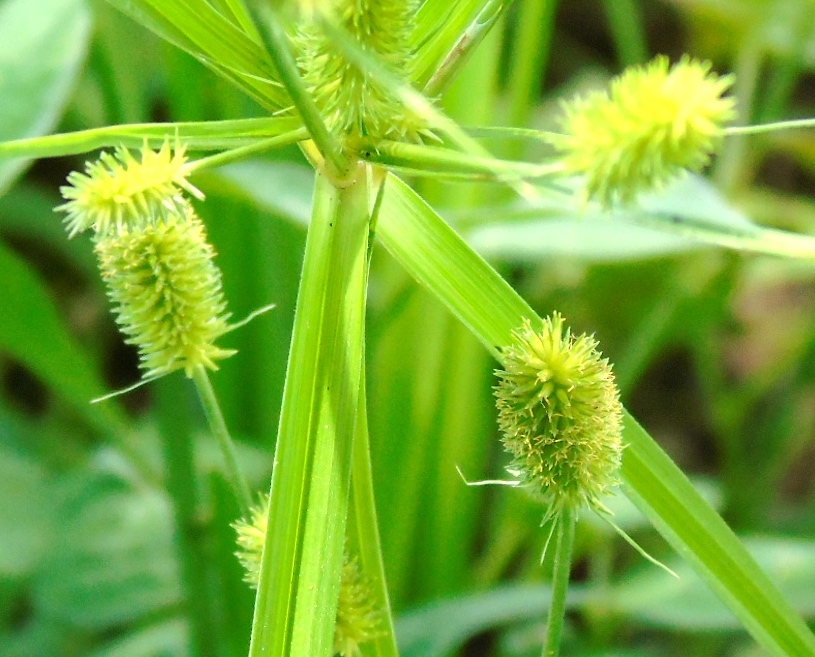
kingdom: Plantae
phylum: Tracheophyta
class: Liliopsida
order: Poales
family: Cyperaceae
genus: Cyperus
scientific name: Cyperus
